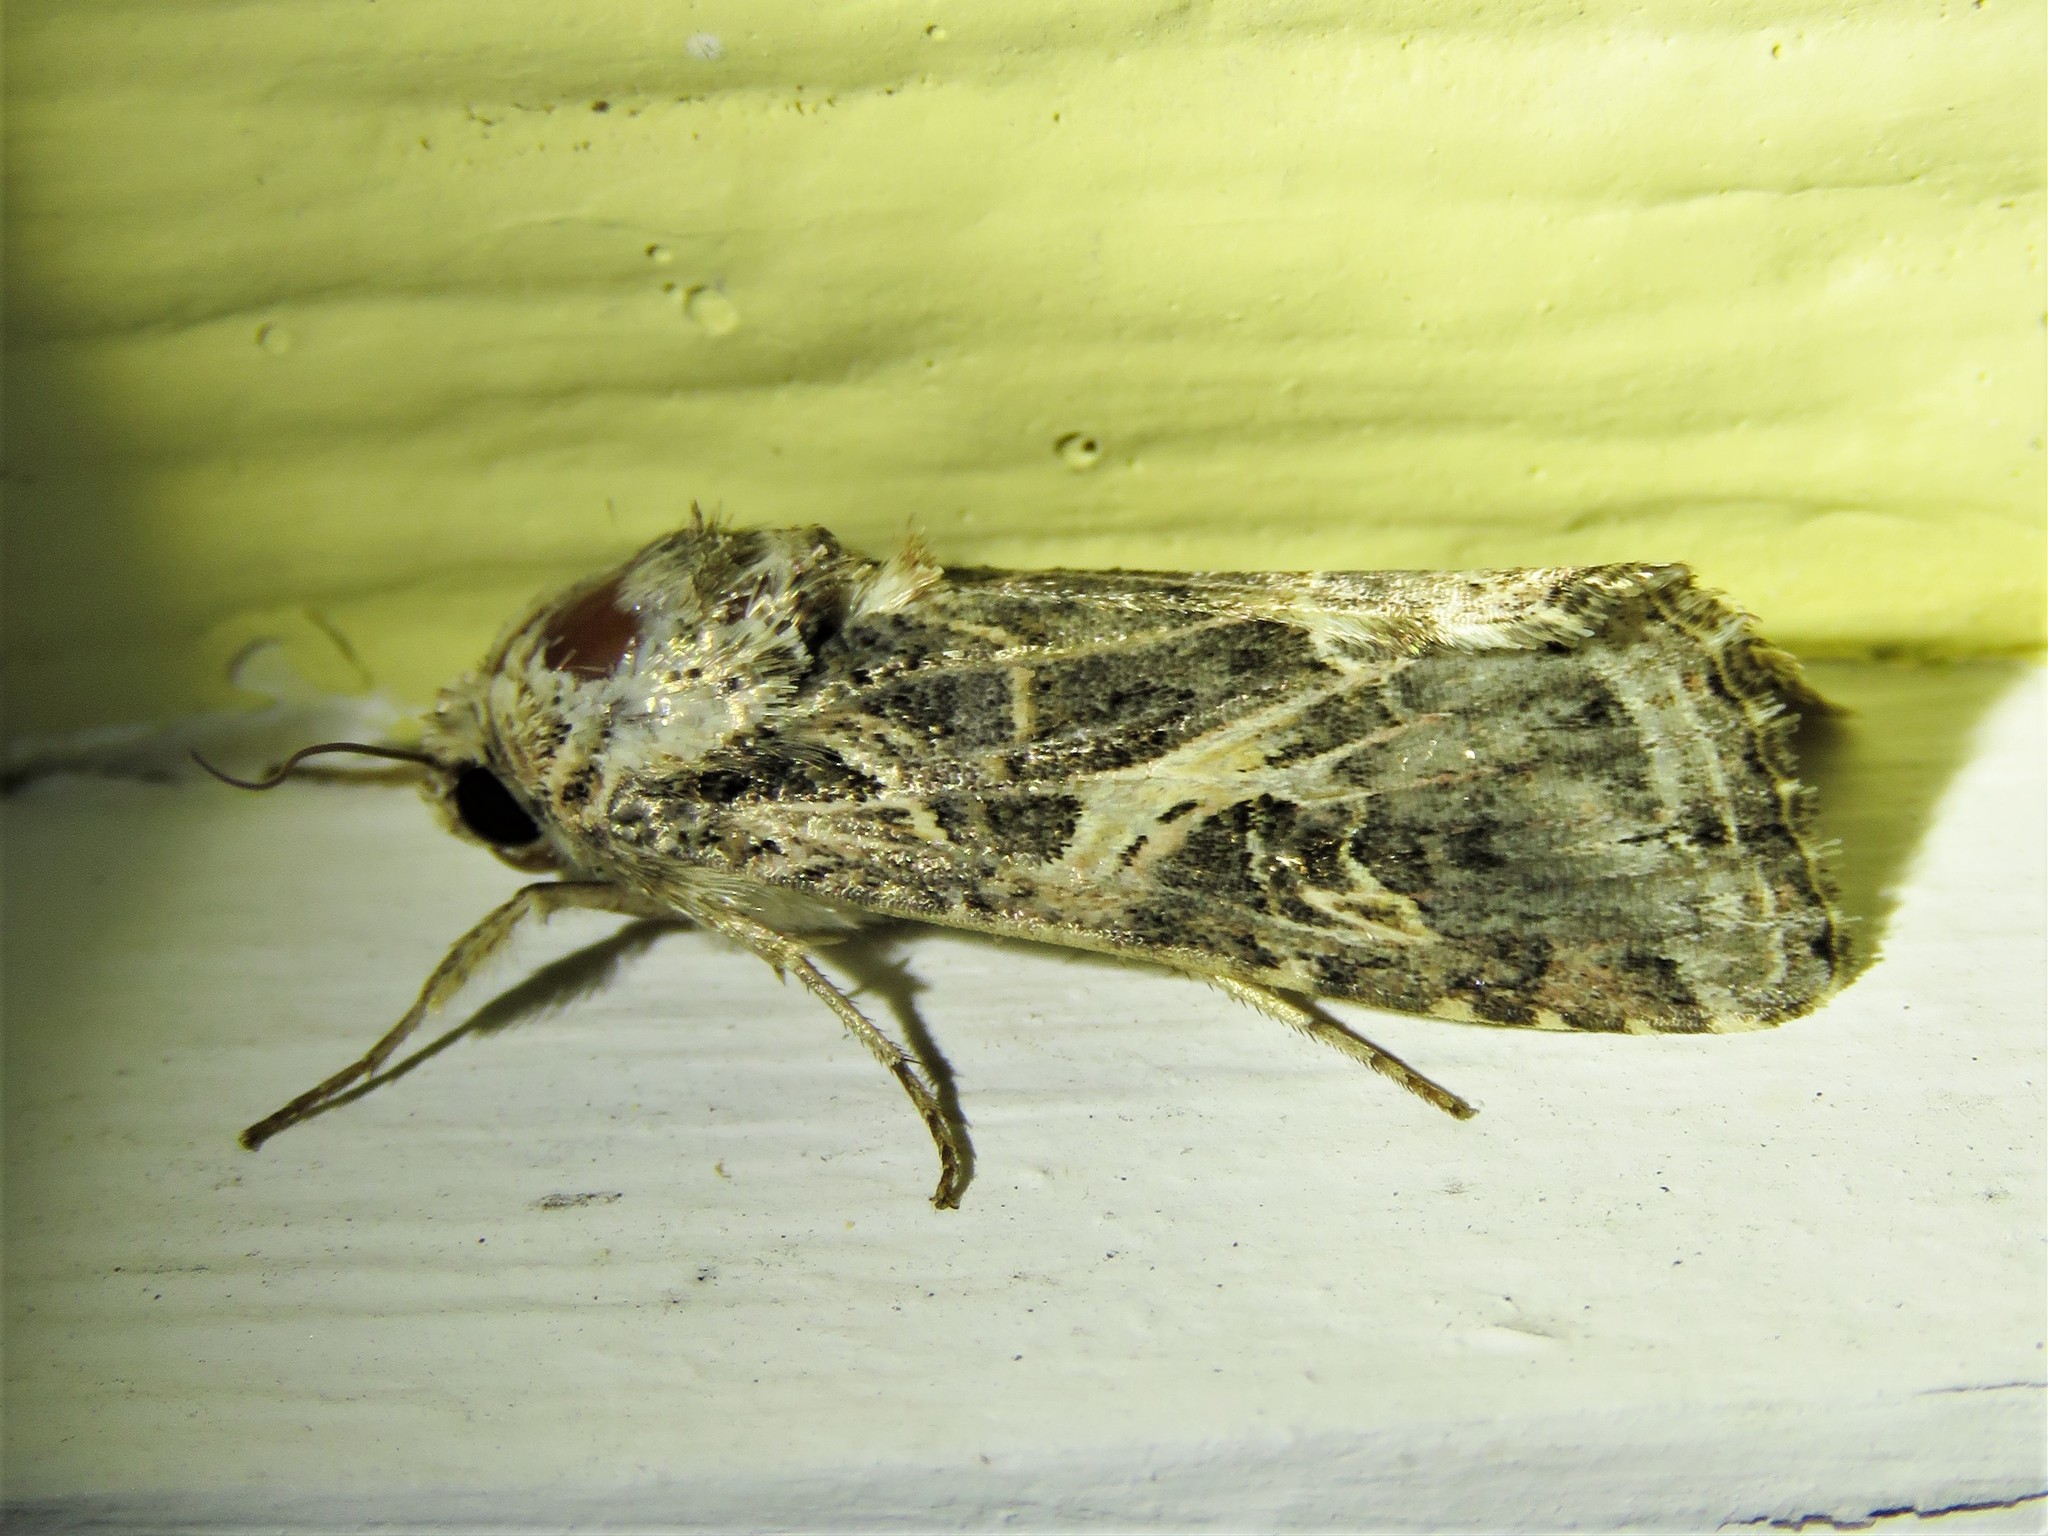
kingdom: Animalia
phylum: Arthropoda
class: Insecta
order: Lepidoptera
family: Noctuidae
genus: Spodoptera
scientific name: Spodoptera ornithogalli
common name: Yellow-striped armyworm
